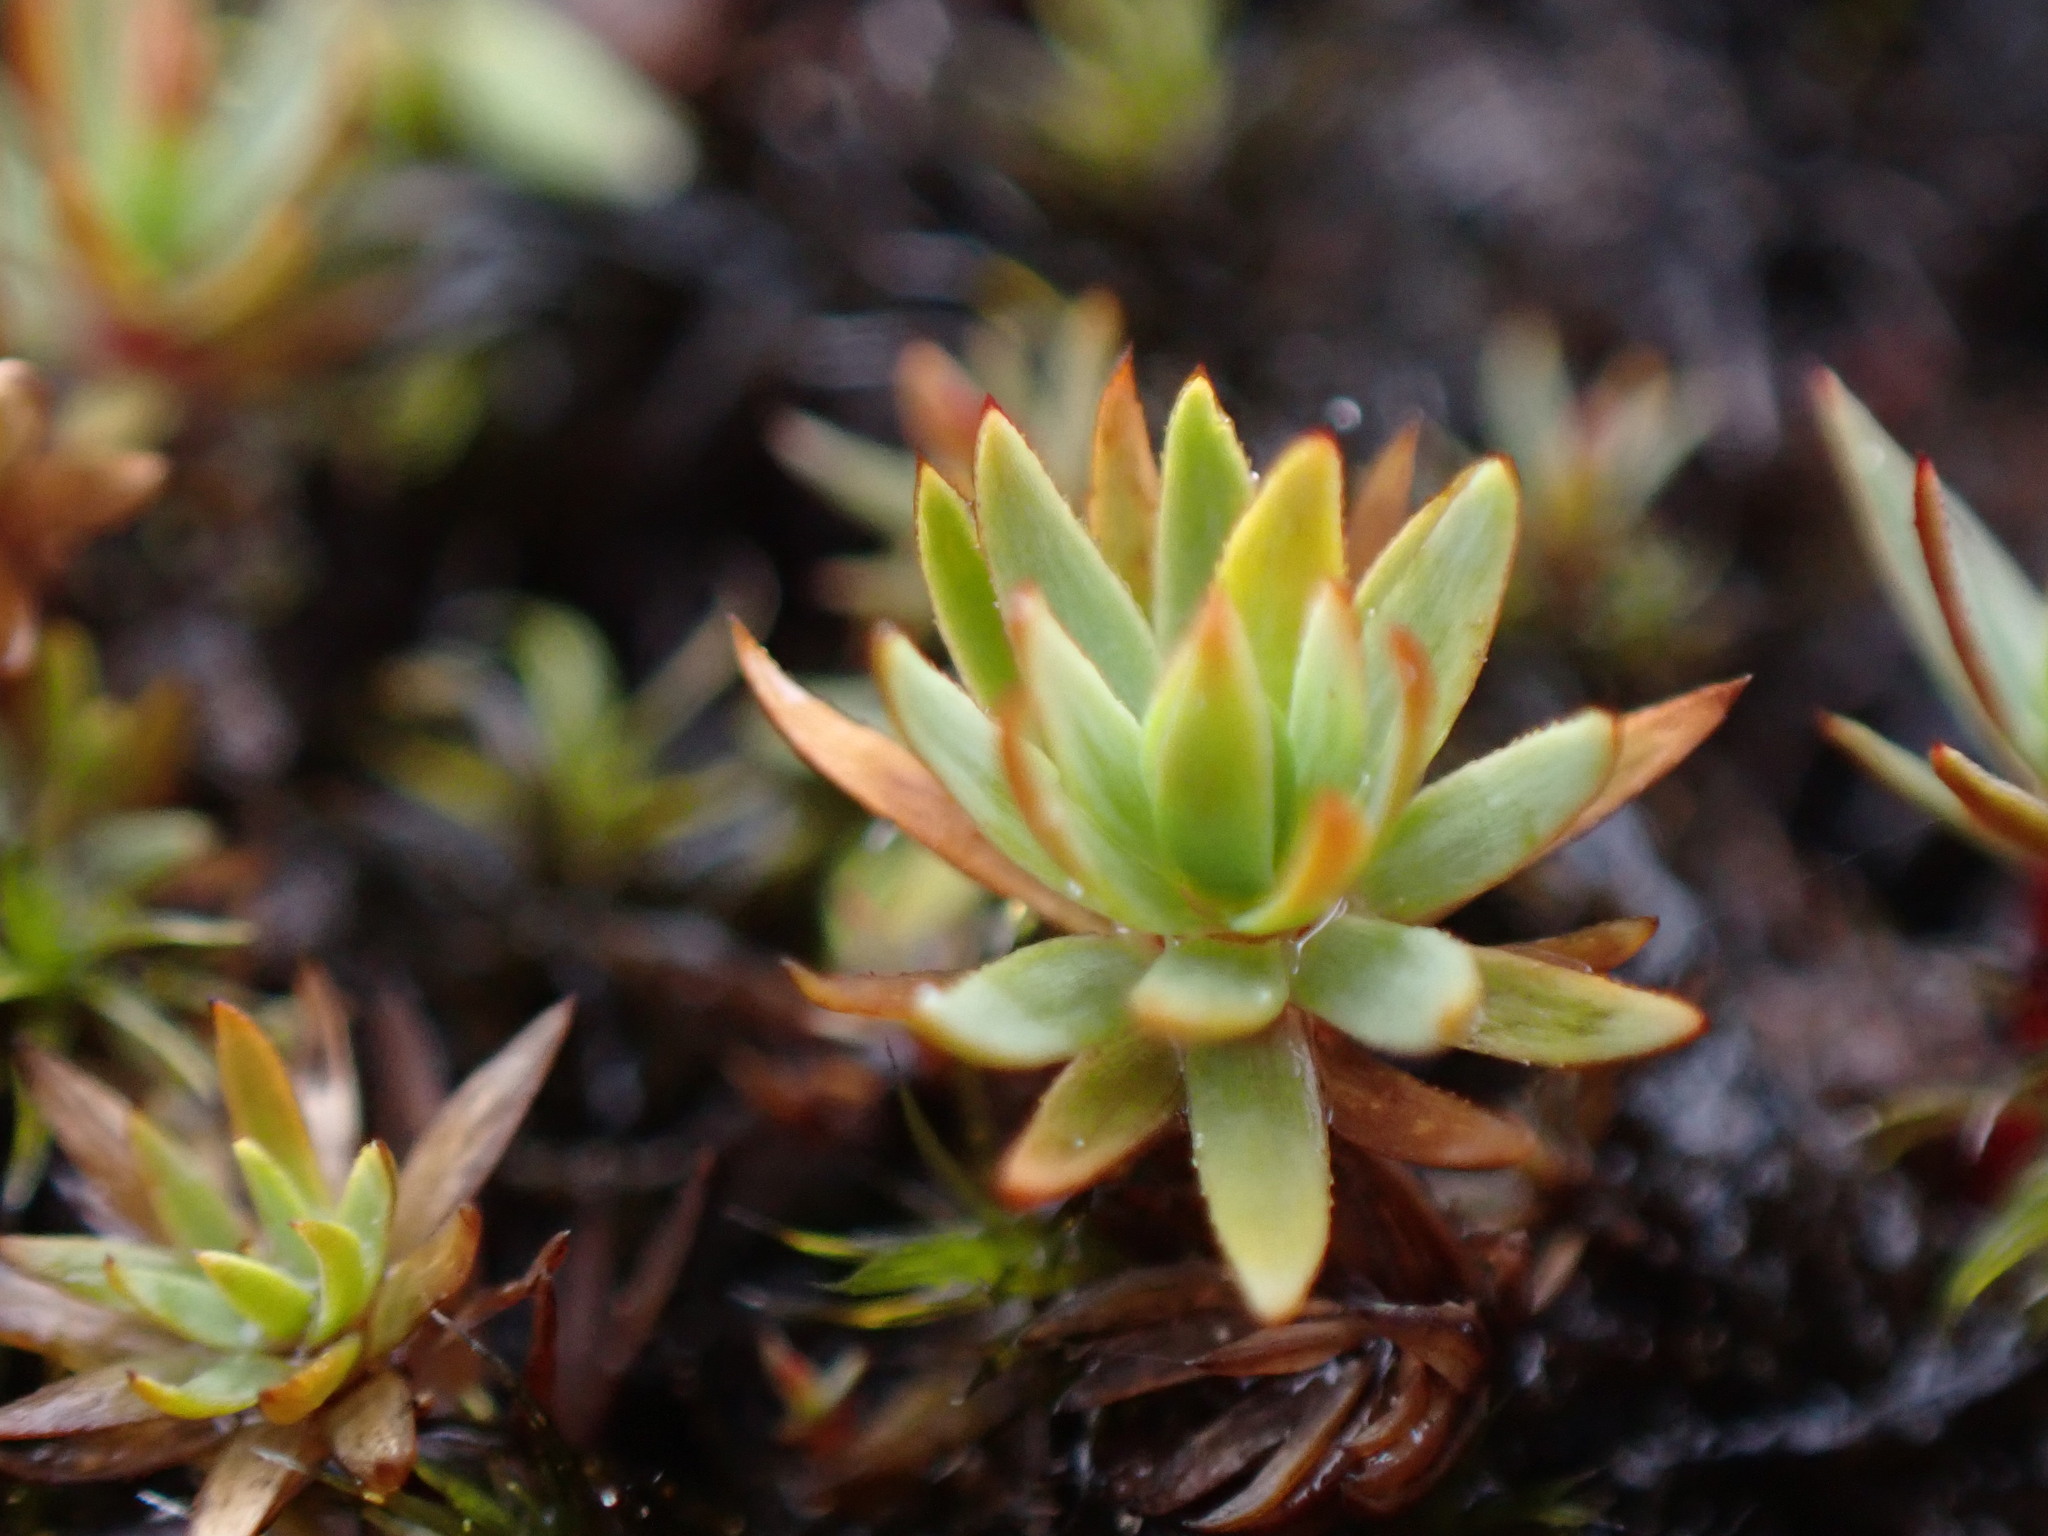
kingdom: Plantae
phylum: Bryophyta
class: Polytrichopsida
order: Polytrichales
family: Polytrichaceae
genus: Pogonatum
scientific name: Pogonatum urnigerum
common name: Urn hair moss
